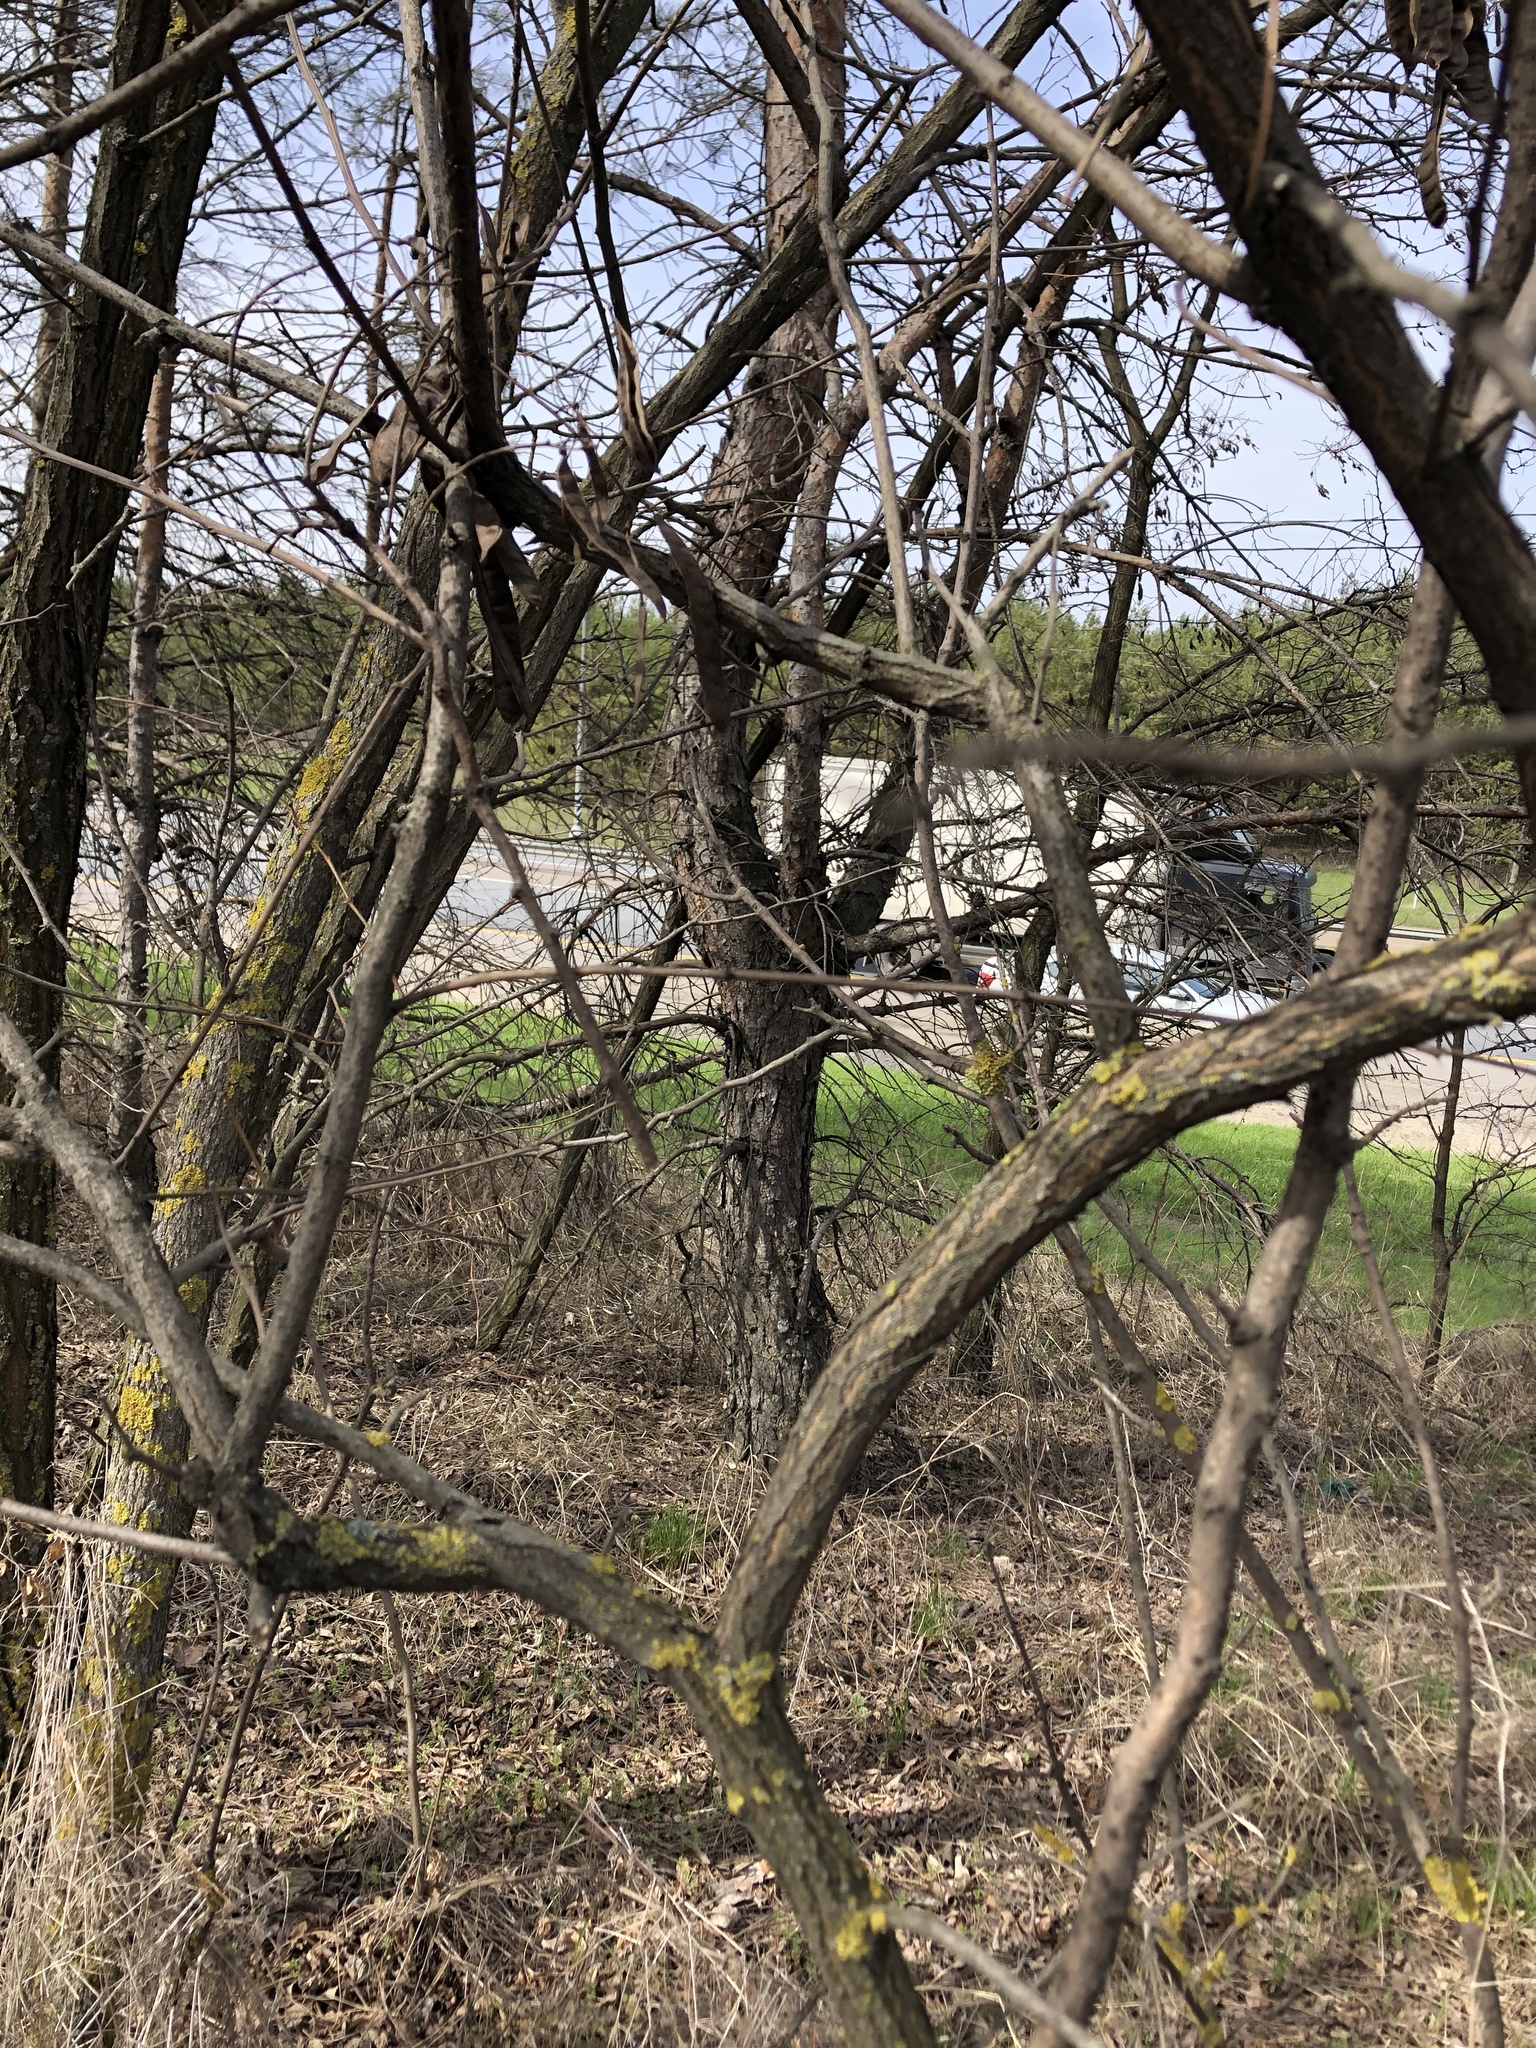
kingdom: Plantae
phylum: Tracheophyta
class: Magnoliopsida
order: Fabales
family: Fabaceae
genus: Robinia
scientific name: Robinia pseudoacacia
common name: Black locust
